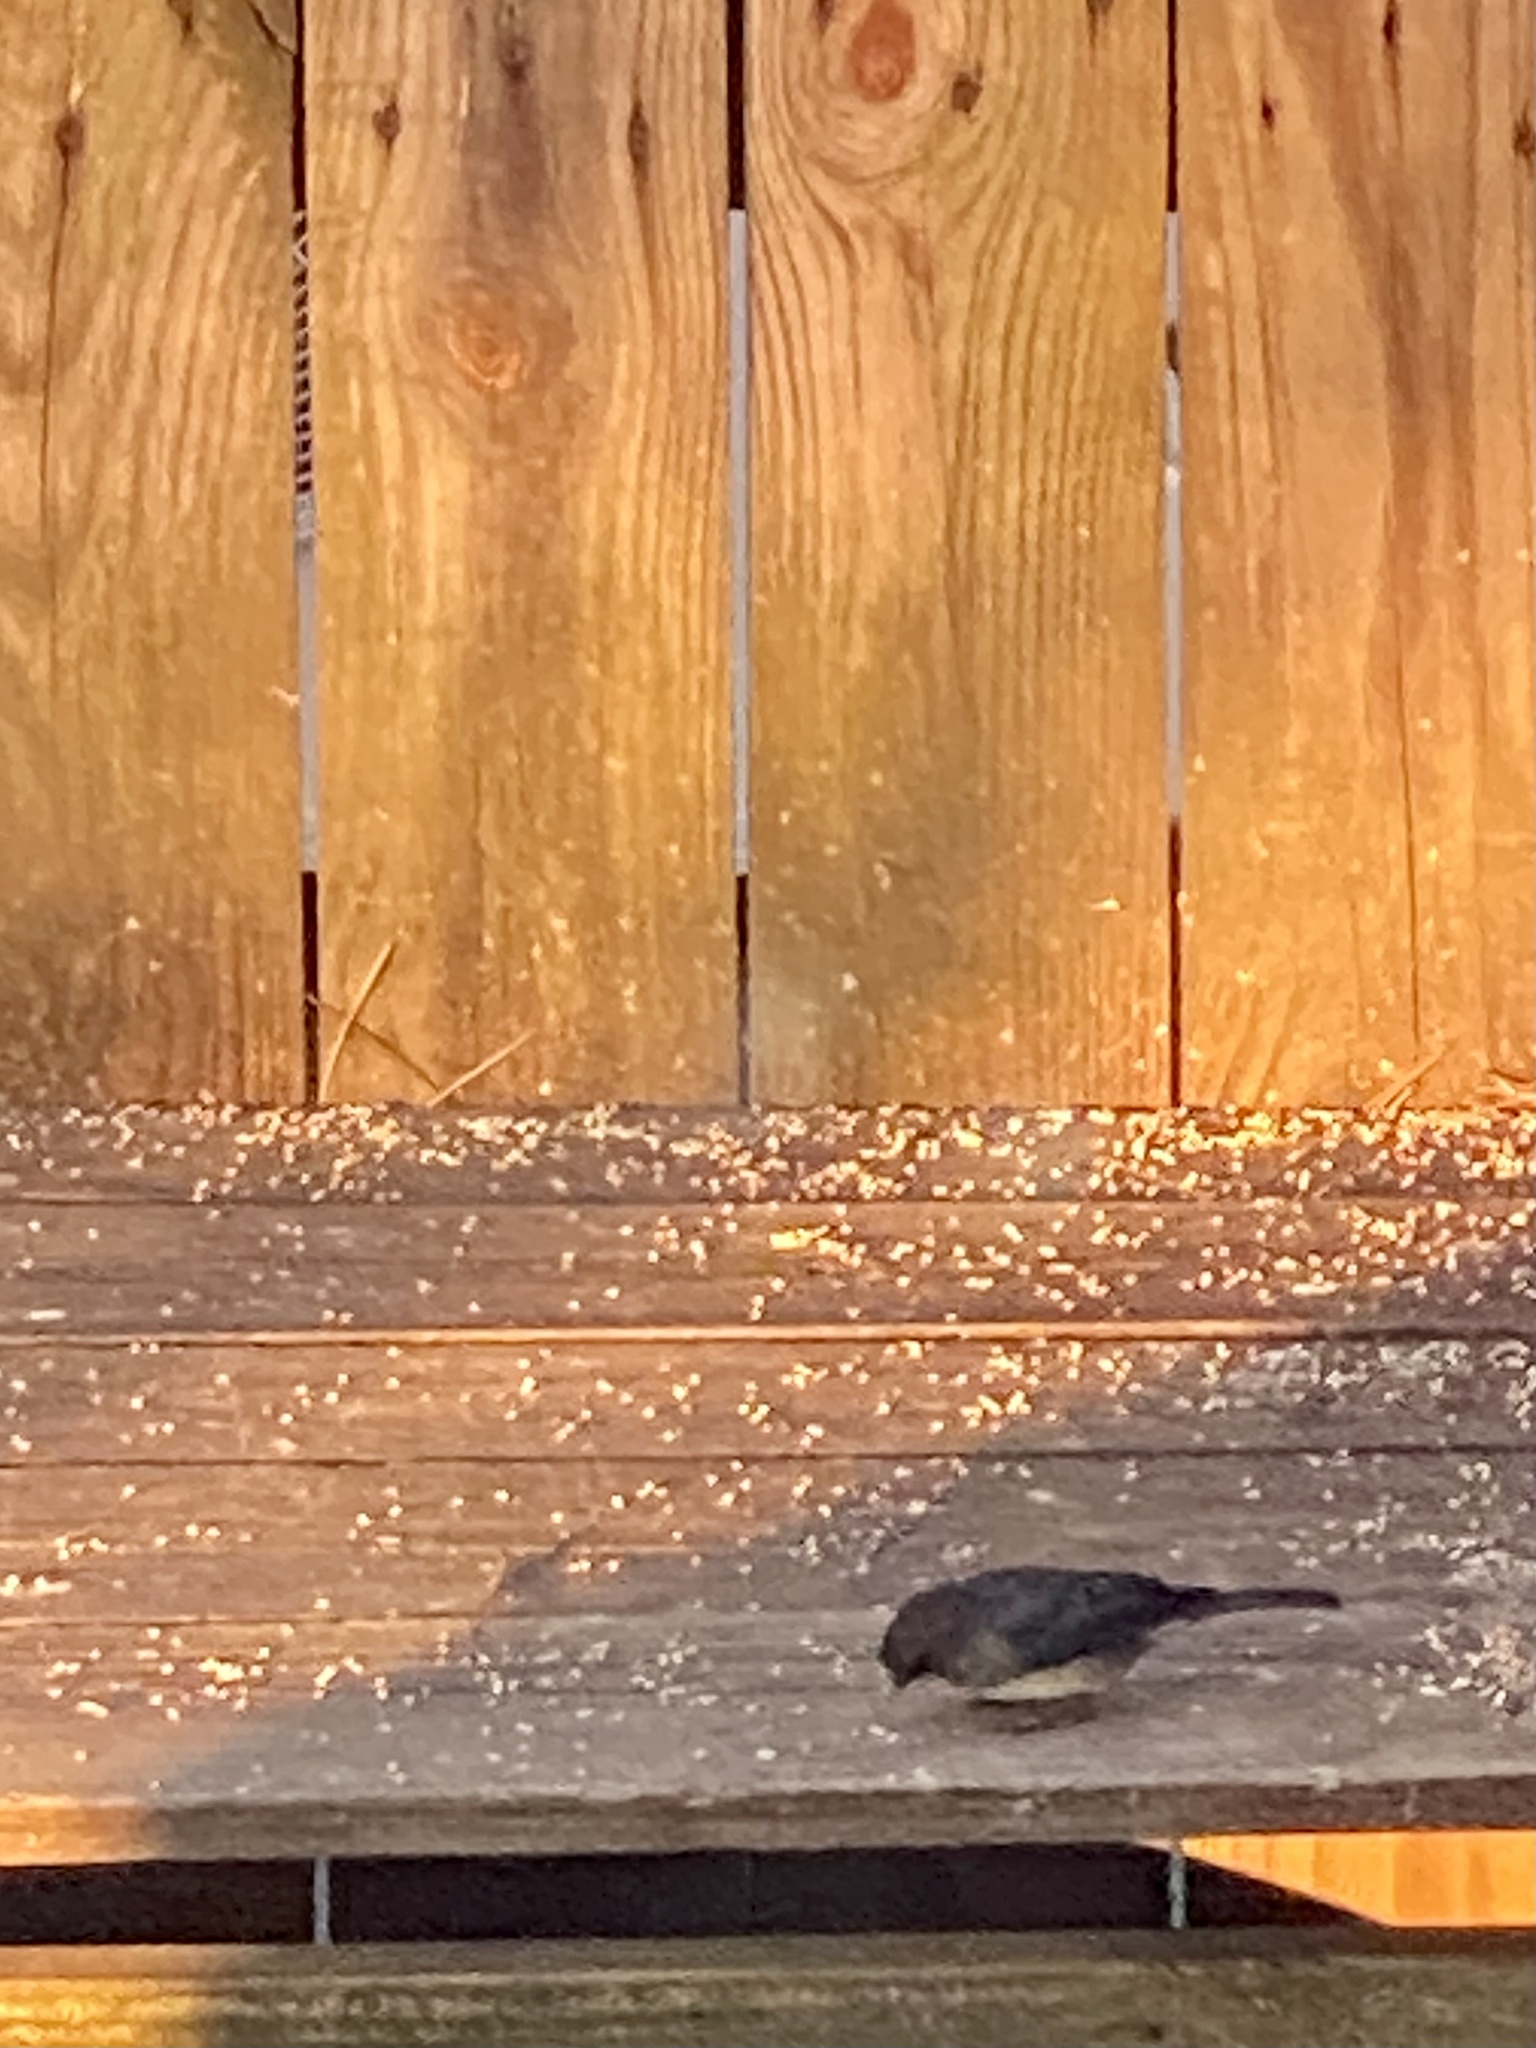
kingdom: Animalia
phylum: Chordata
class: Aves
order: Passeriformes
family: Passerellidae
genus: Junco
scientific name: Junco hyemalis
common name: Dark-eyed junco
